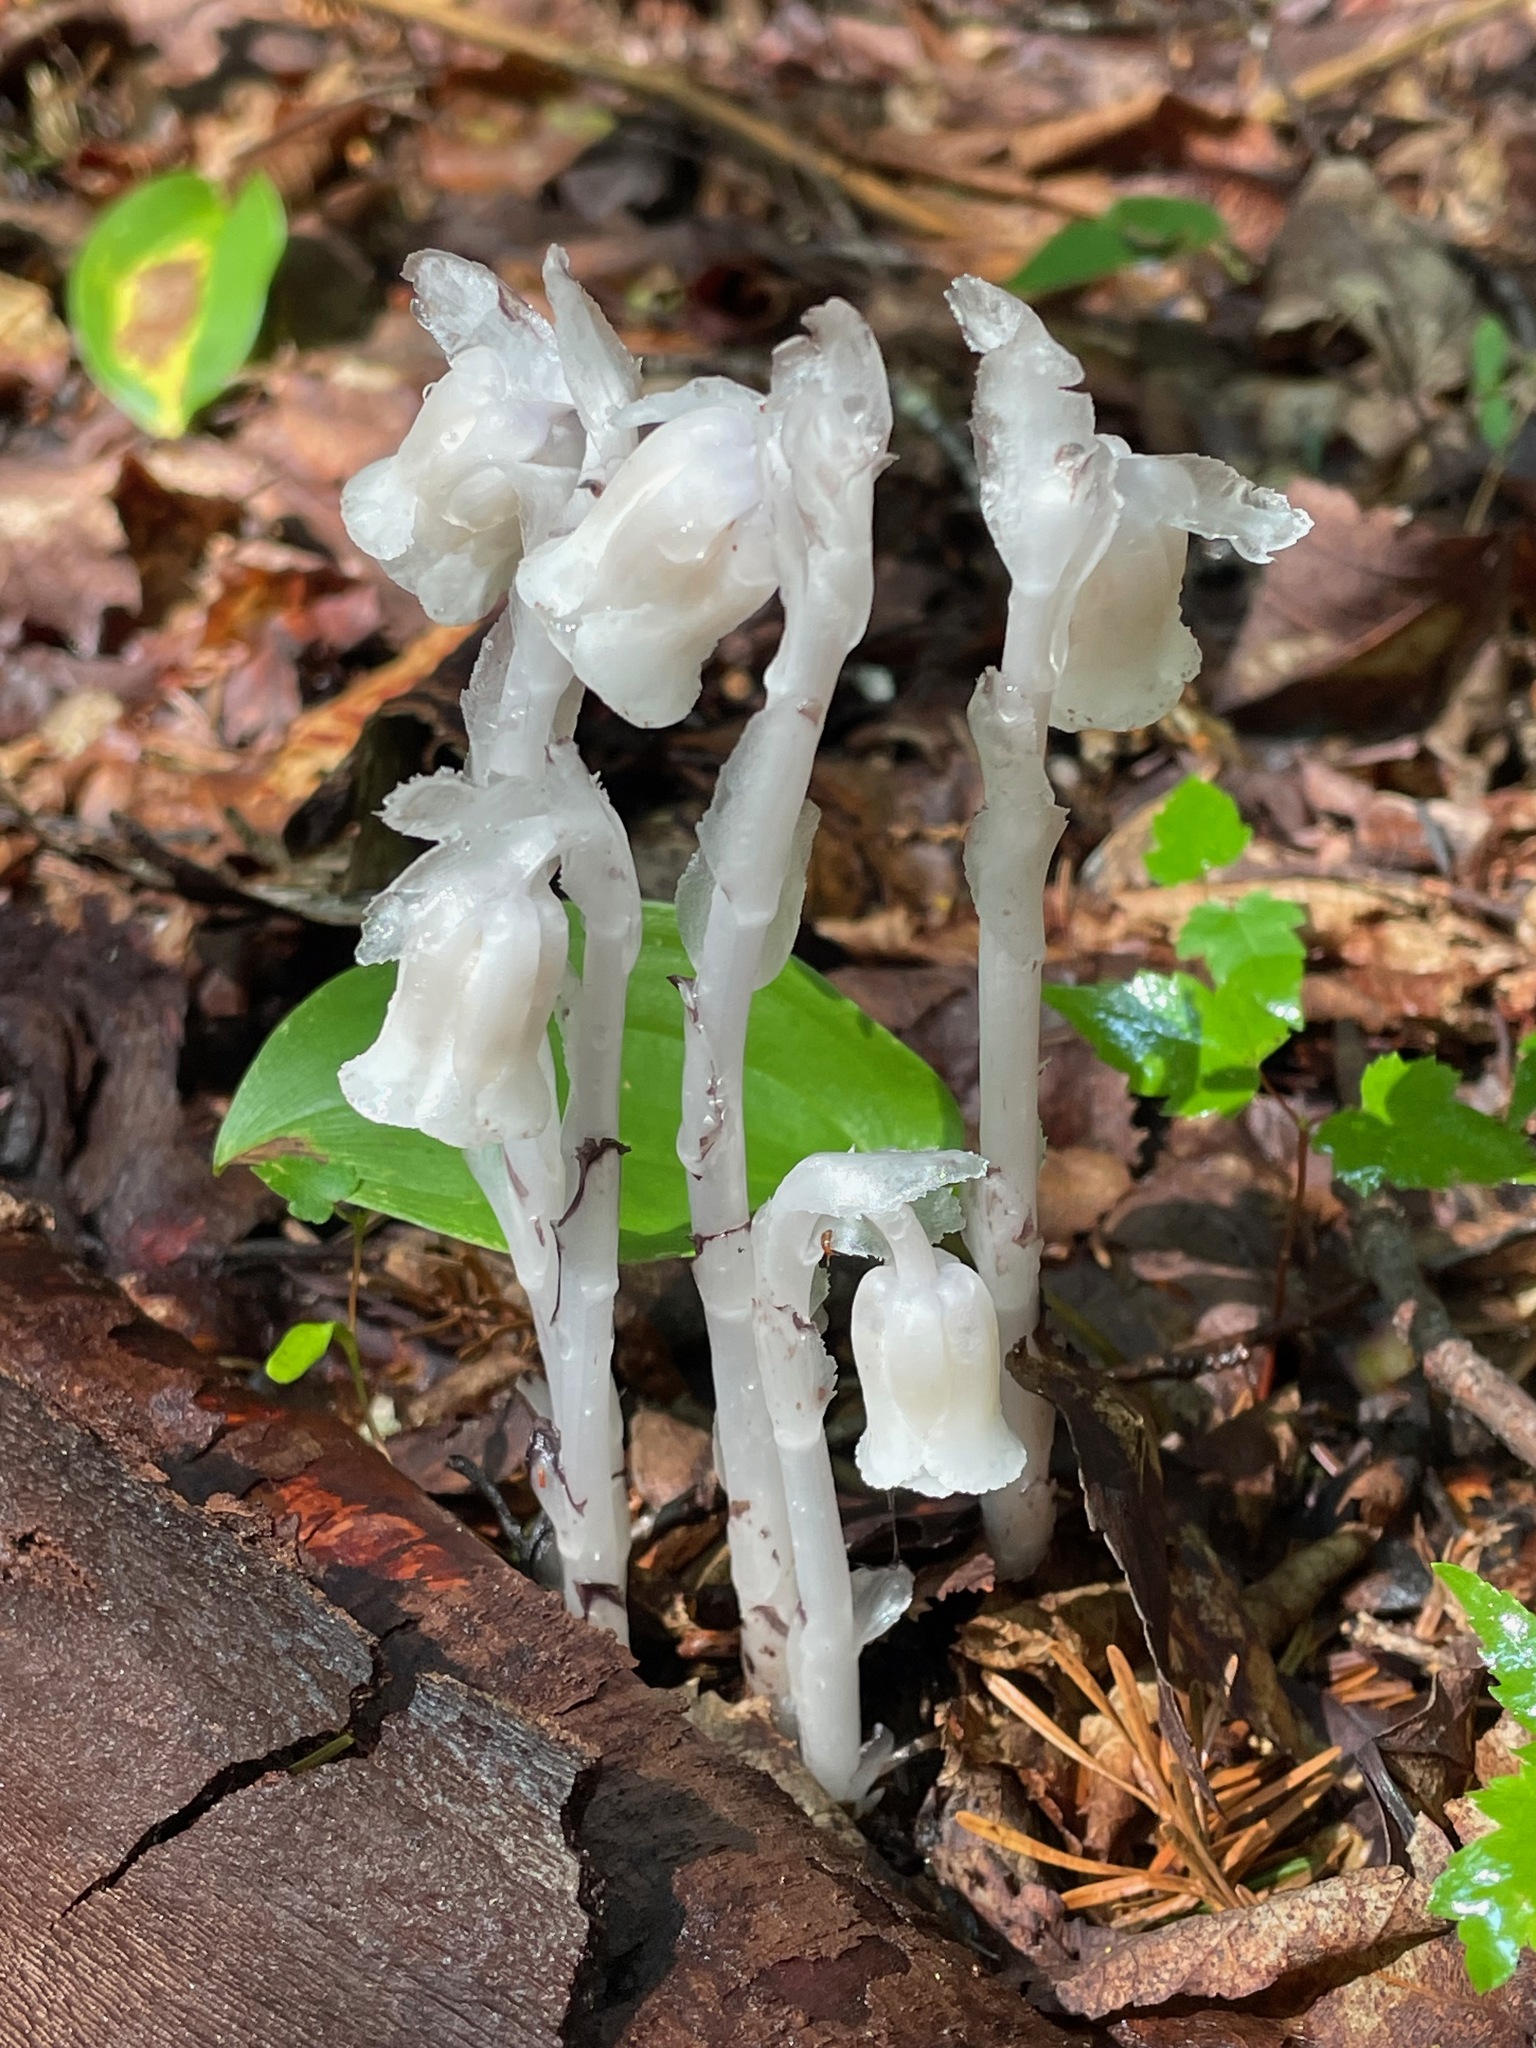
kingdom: Plantae
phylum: Tracheophyta
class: Magnoliopsida
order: Ericales
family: Ericaceae
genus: Monotropa
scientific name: Monotropa uniflora
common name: Convulsion root
